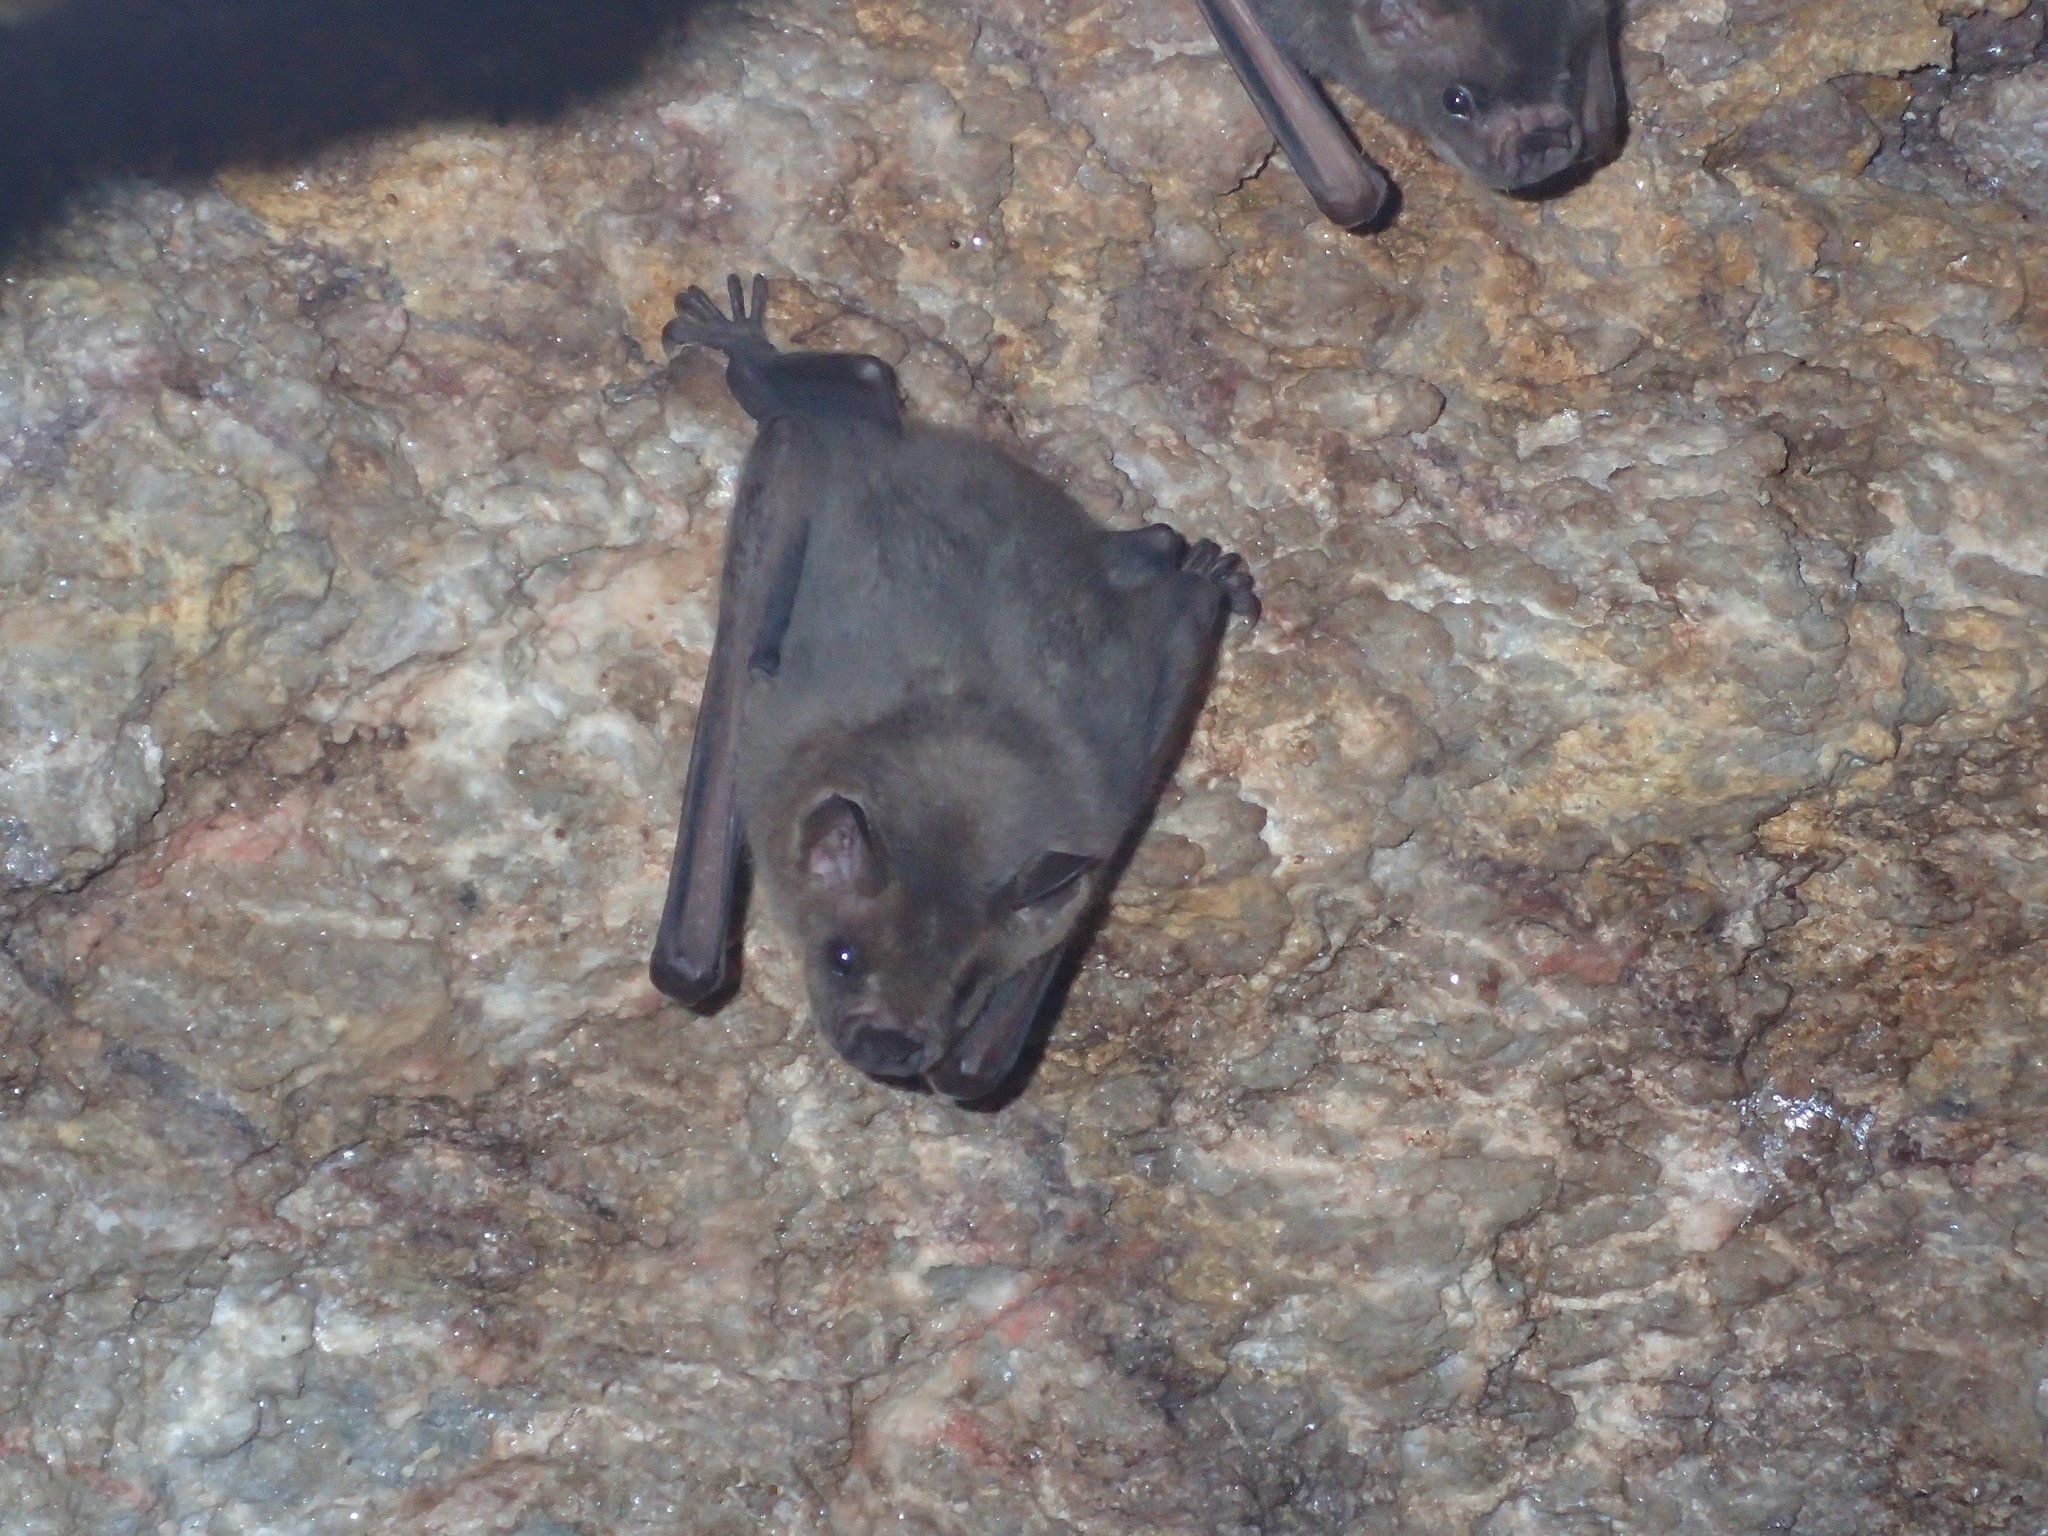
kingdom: Animalia
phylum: Chordata
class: Mammalia
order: Chiroptera
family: Phyllostomidae
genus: Artibeus
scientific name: Artibeus jamaicensis
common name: Jamaican fruit-eating bat
